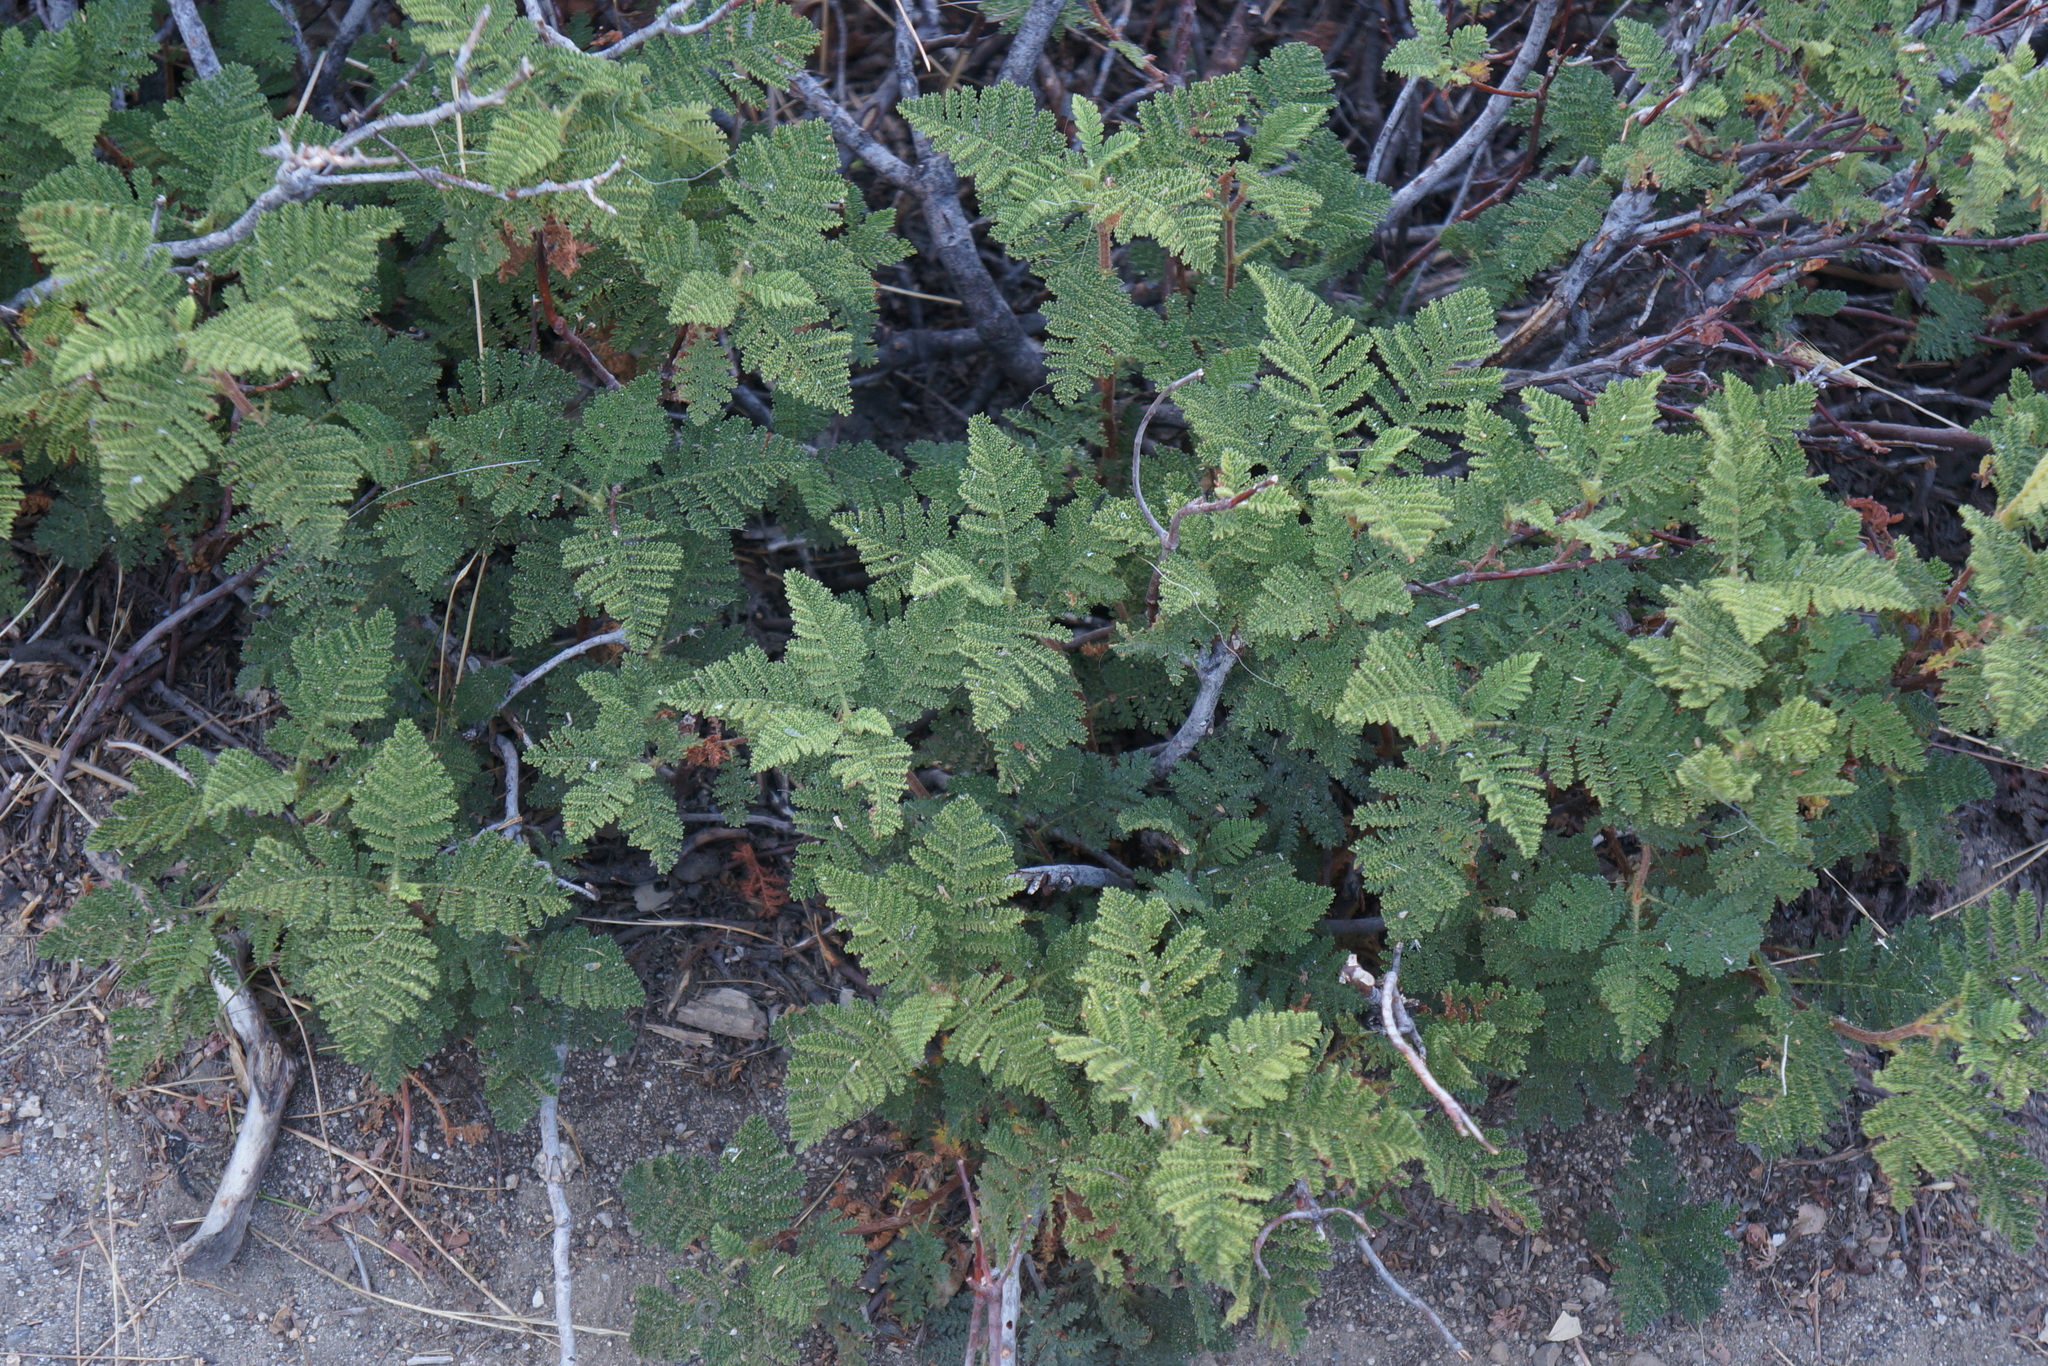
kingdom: Plantae
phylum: Tracheophyta
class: Magnoliopsida
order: Rosales
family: Rosaceae
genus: Chamaebatia
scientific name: Chamaebatia foliolosa
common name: Mountain misery
